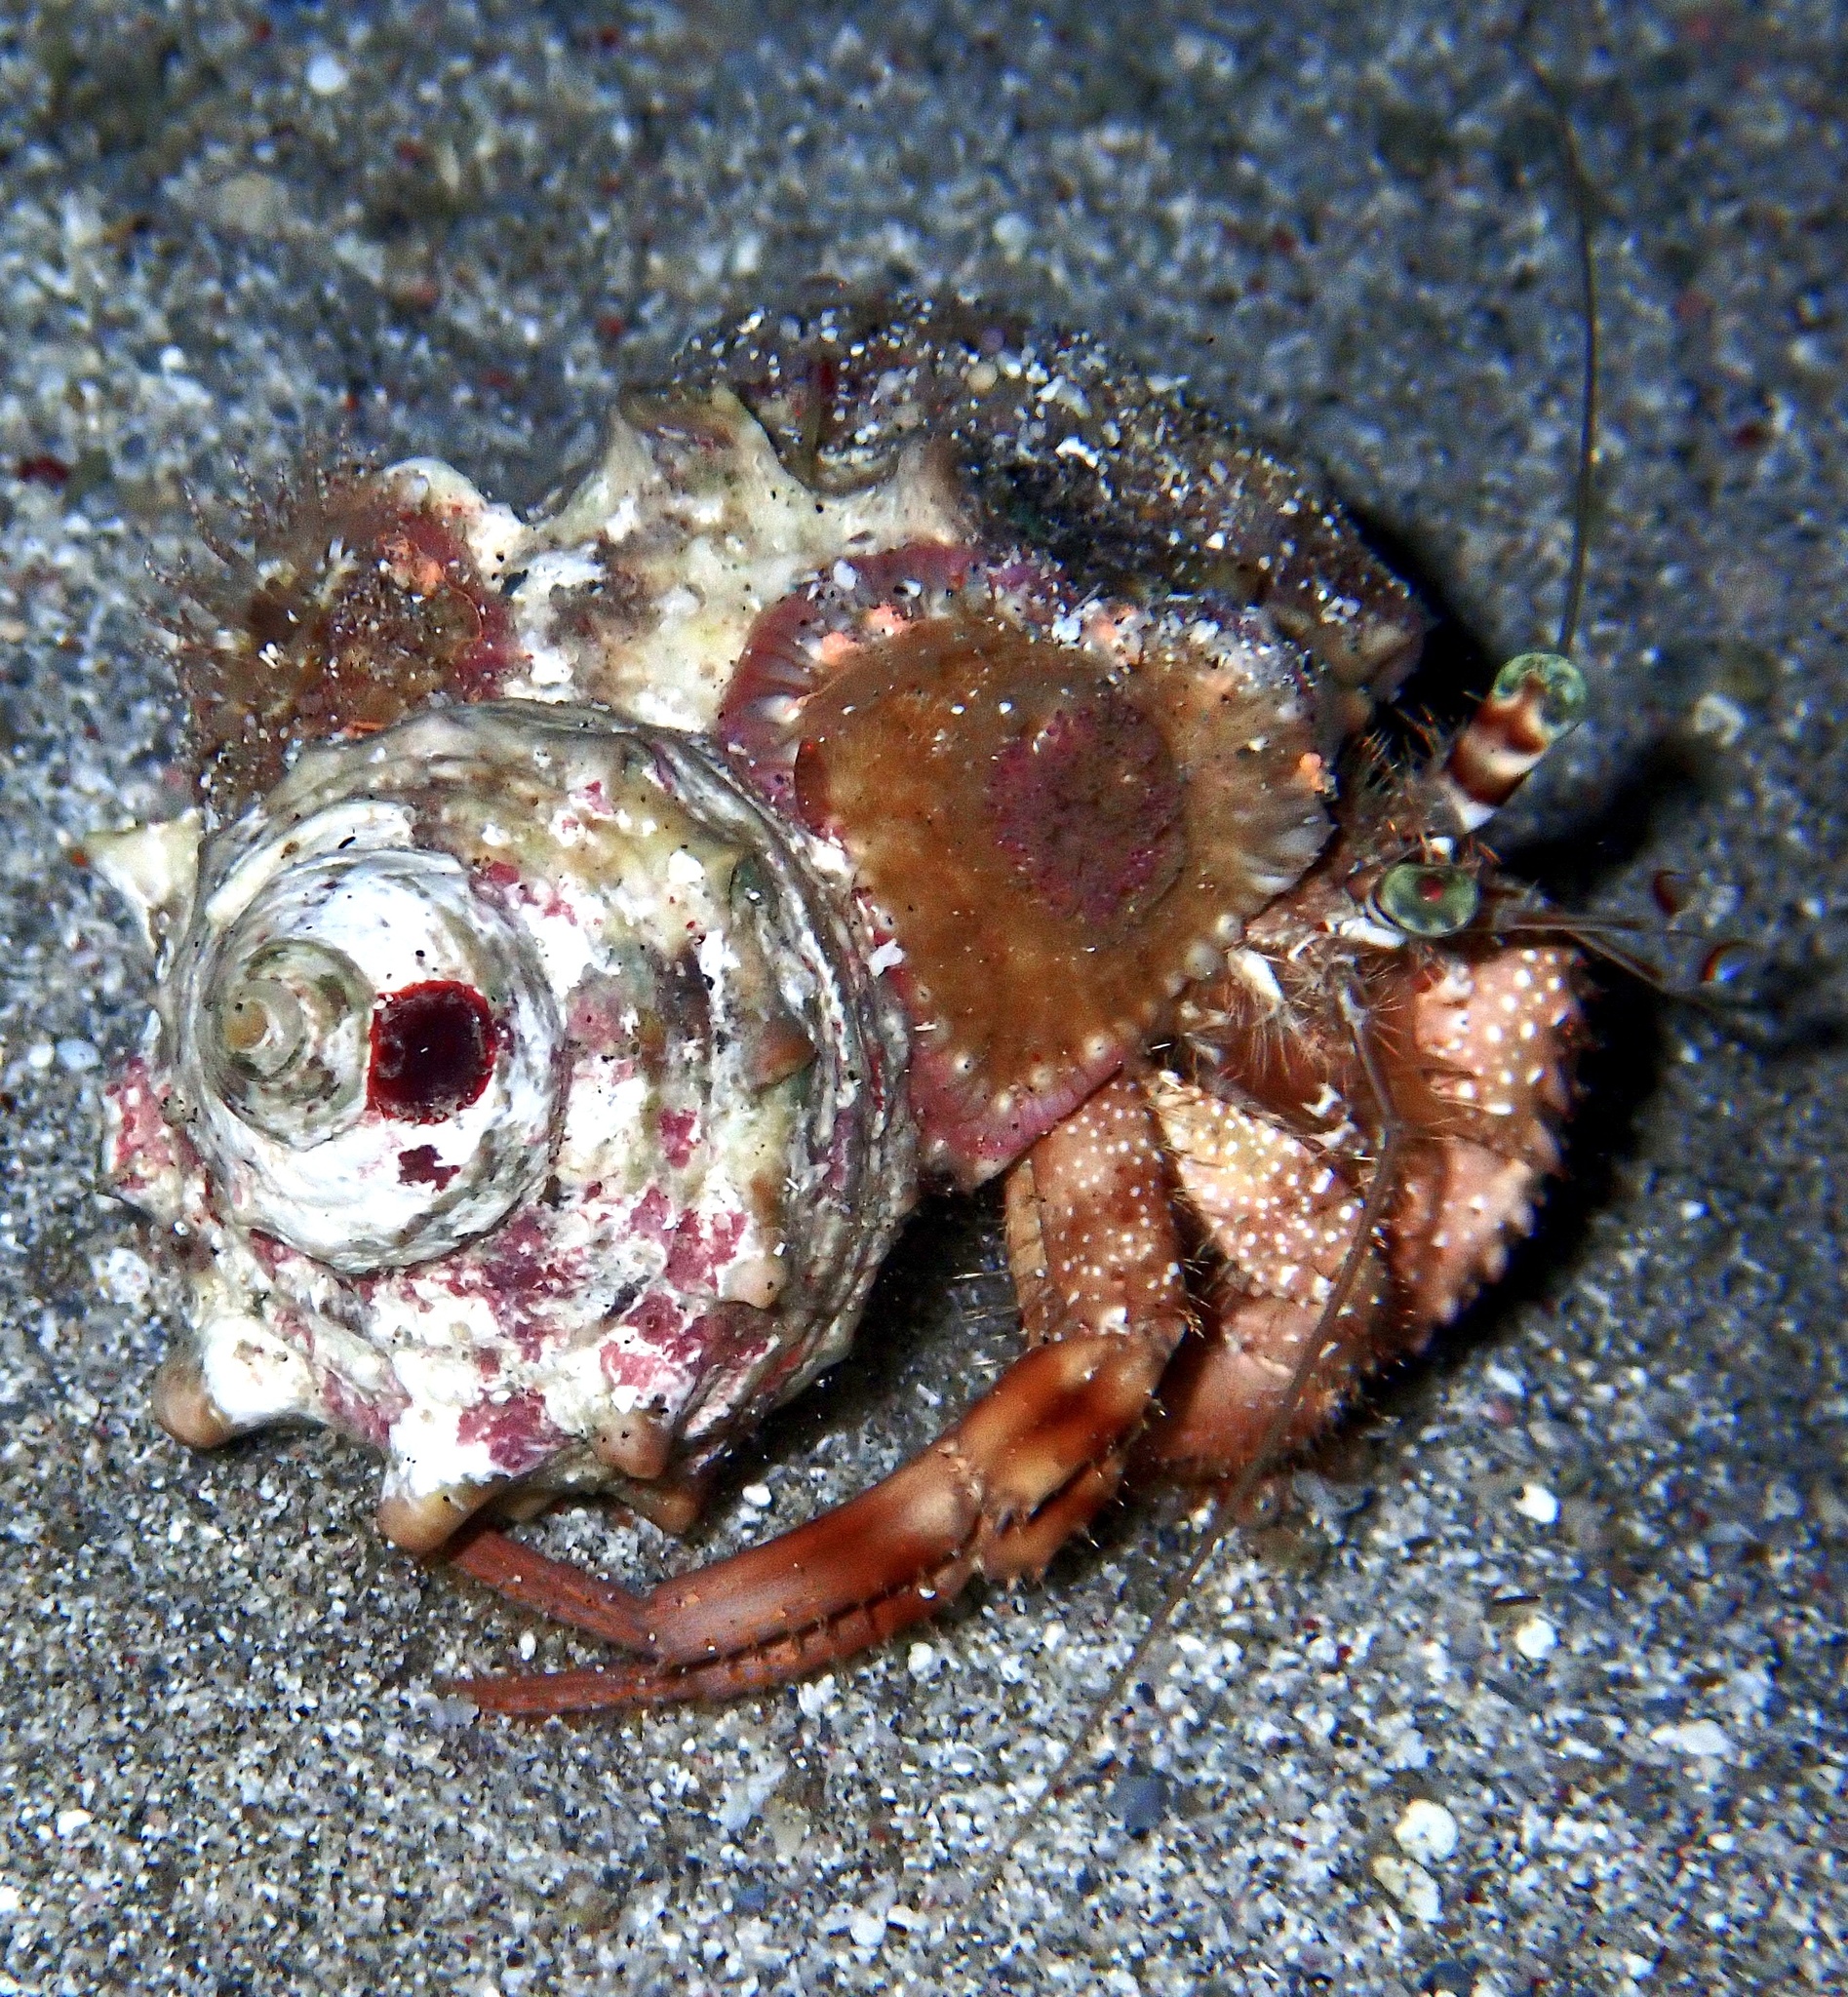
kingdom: Animalia
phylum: Arthropoda
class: Malacostraca
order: Decapoda
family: Diogenidae
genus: Dardanus
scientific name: Dardanus tinctor
